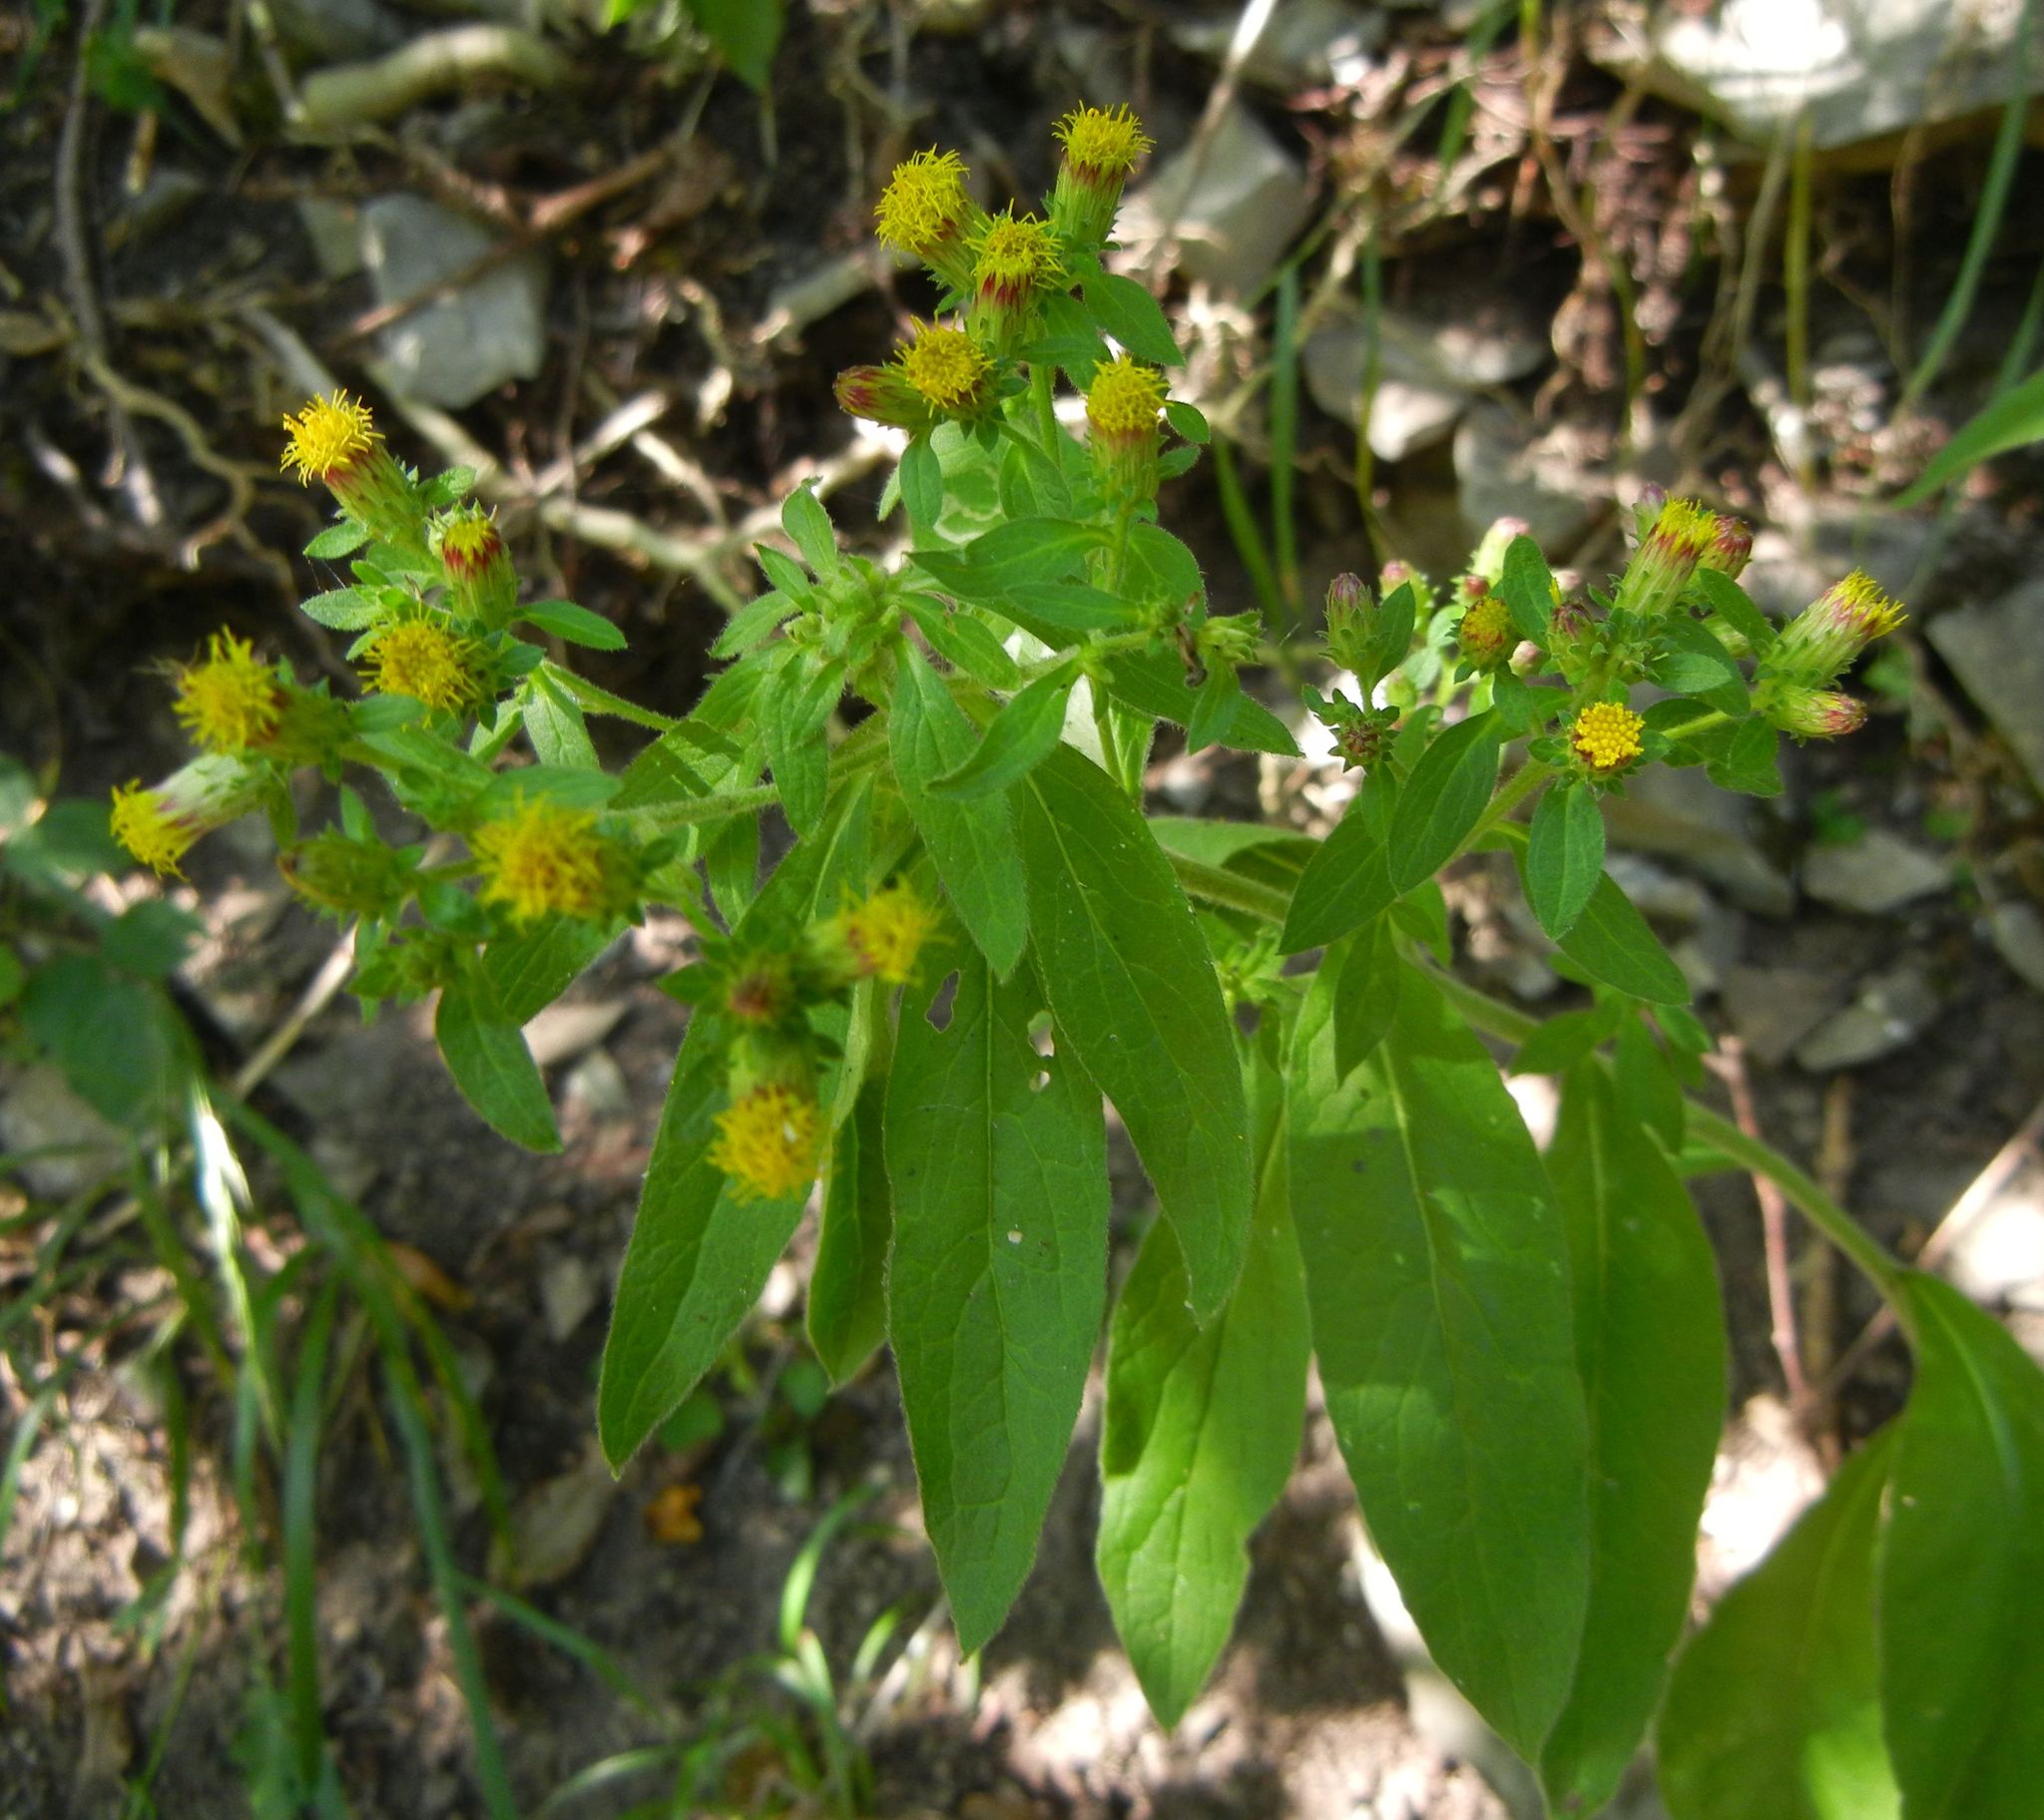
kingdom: Plantae
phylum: Tracheophyta
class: Magnoliopsida
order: Asterales
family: Asteraceae
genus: Pentanema
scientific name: Pentanema squarrosum
